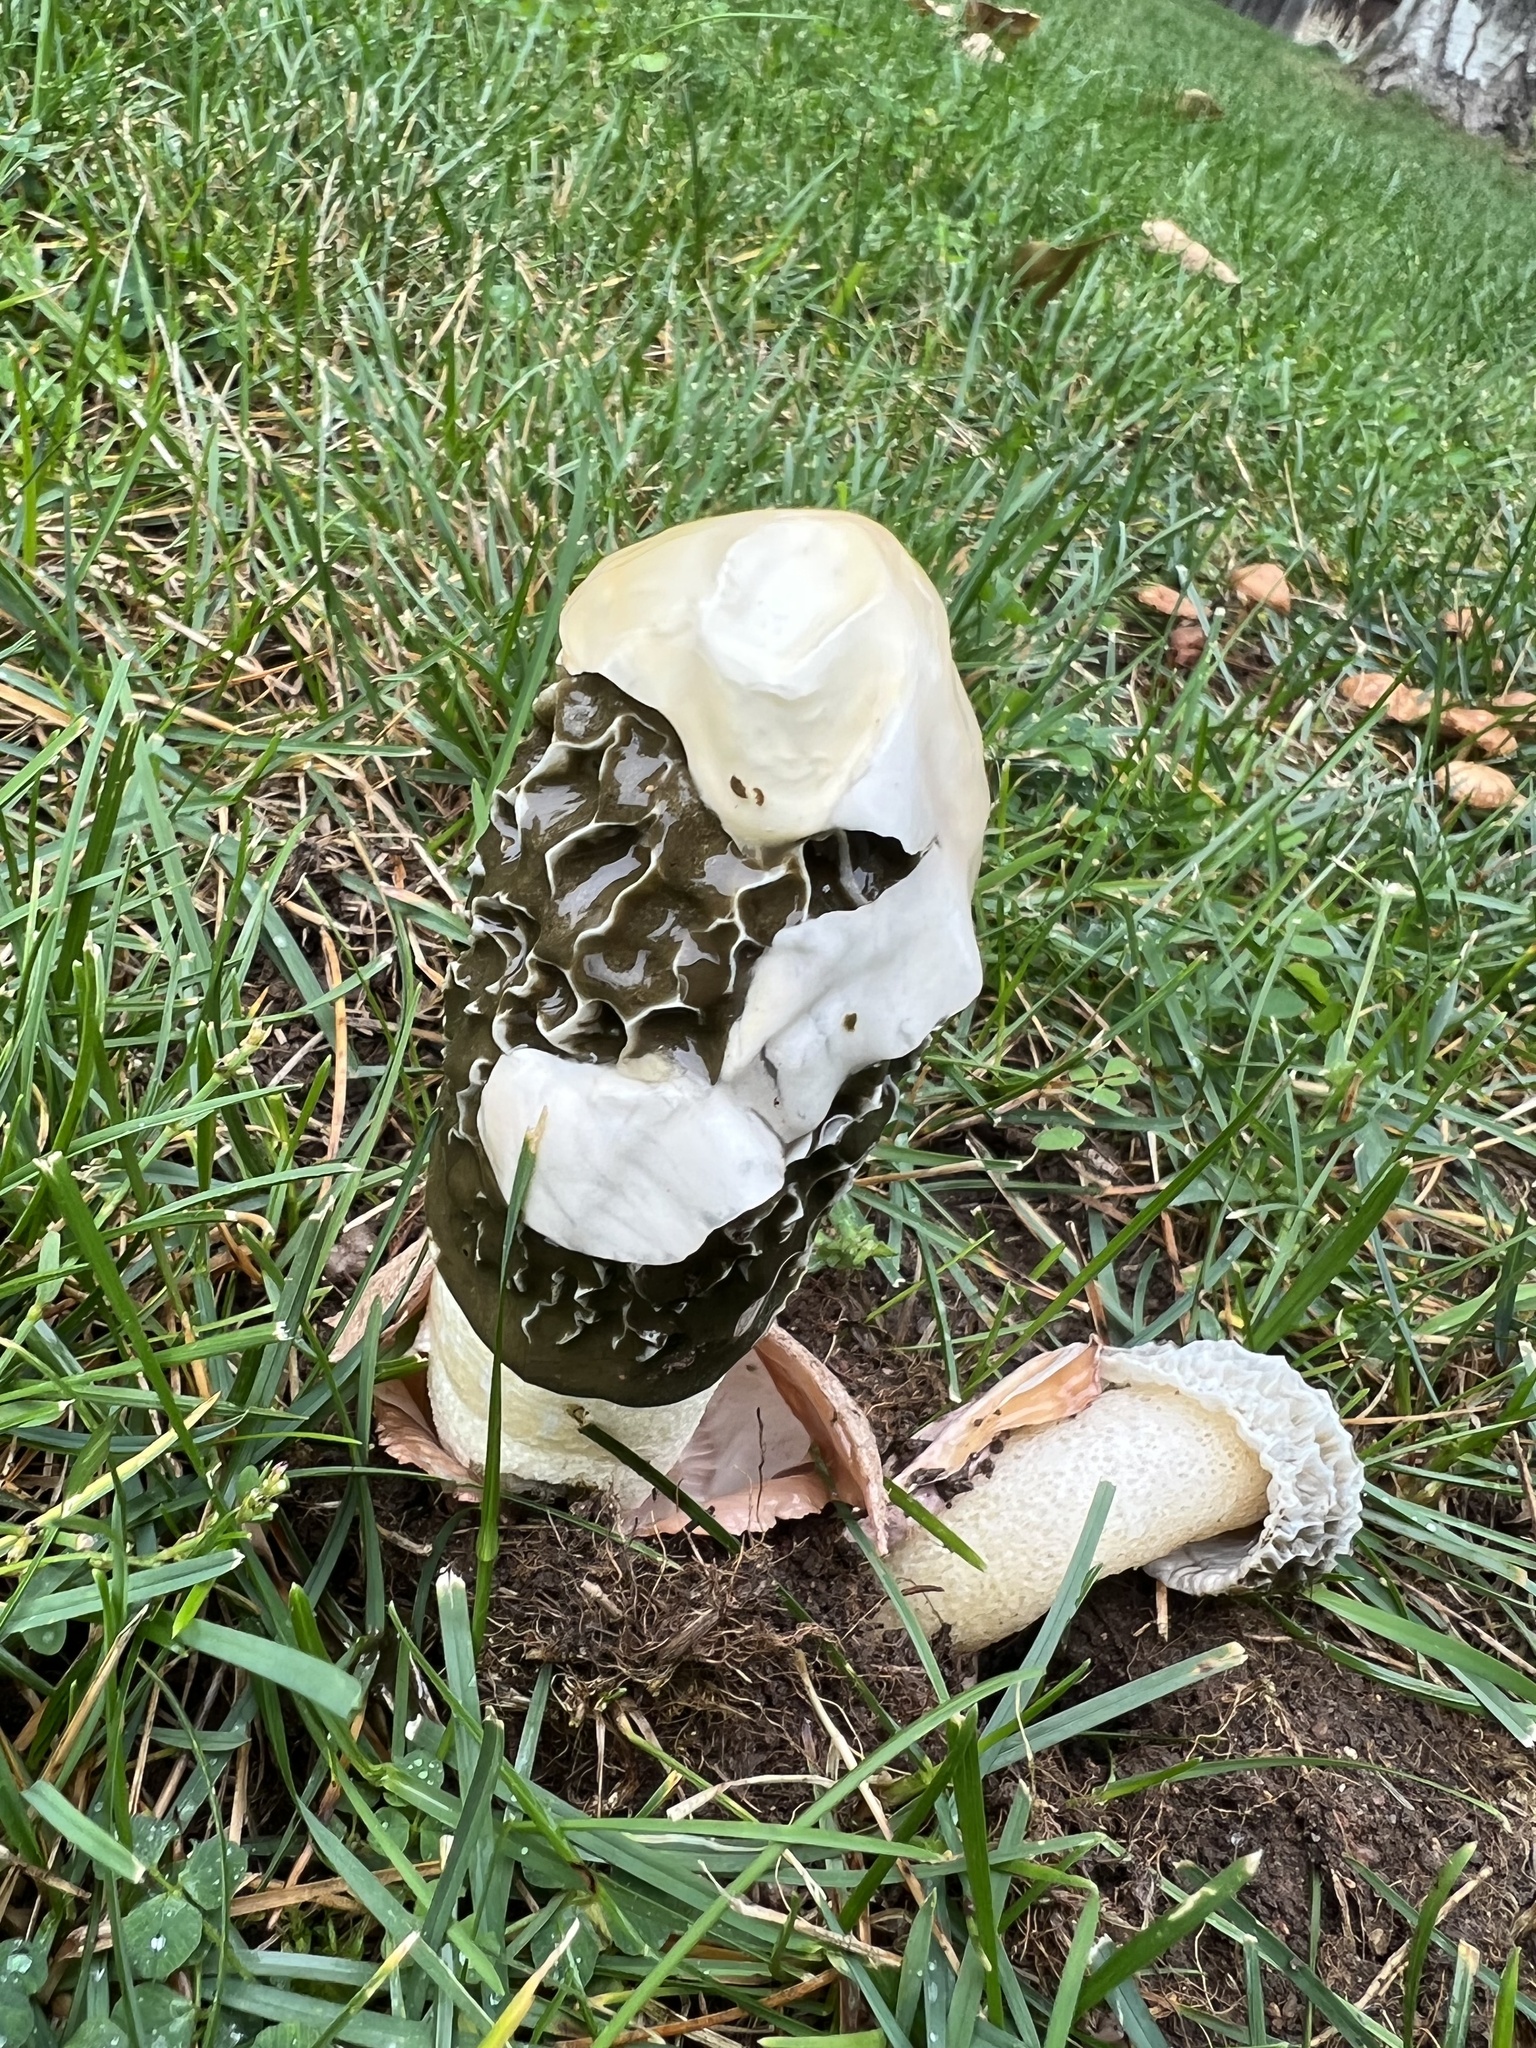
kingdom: Fungi
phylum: Basidiomycota
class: Agaricomycetes
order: Phallales
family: Phallaceae
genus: Phallus
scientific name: Phallus hadriani
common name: Sand stinkhorn
